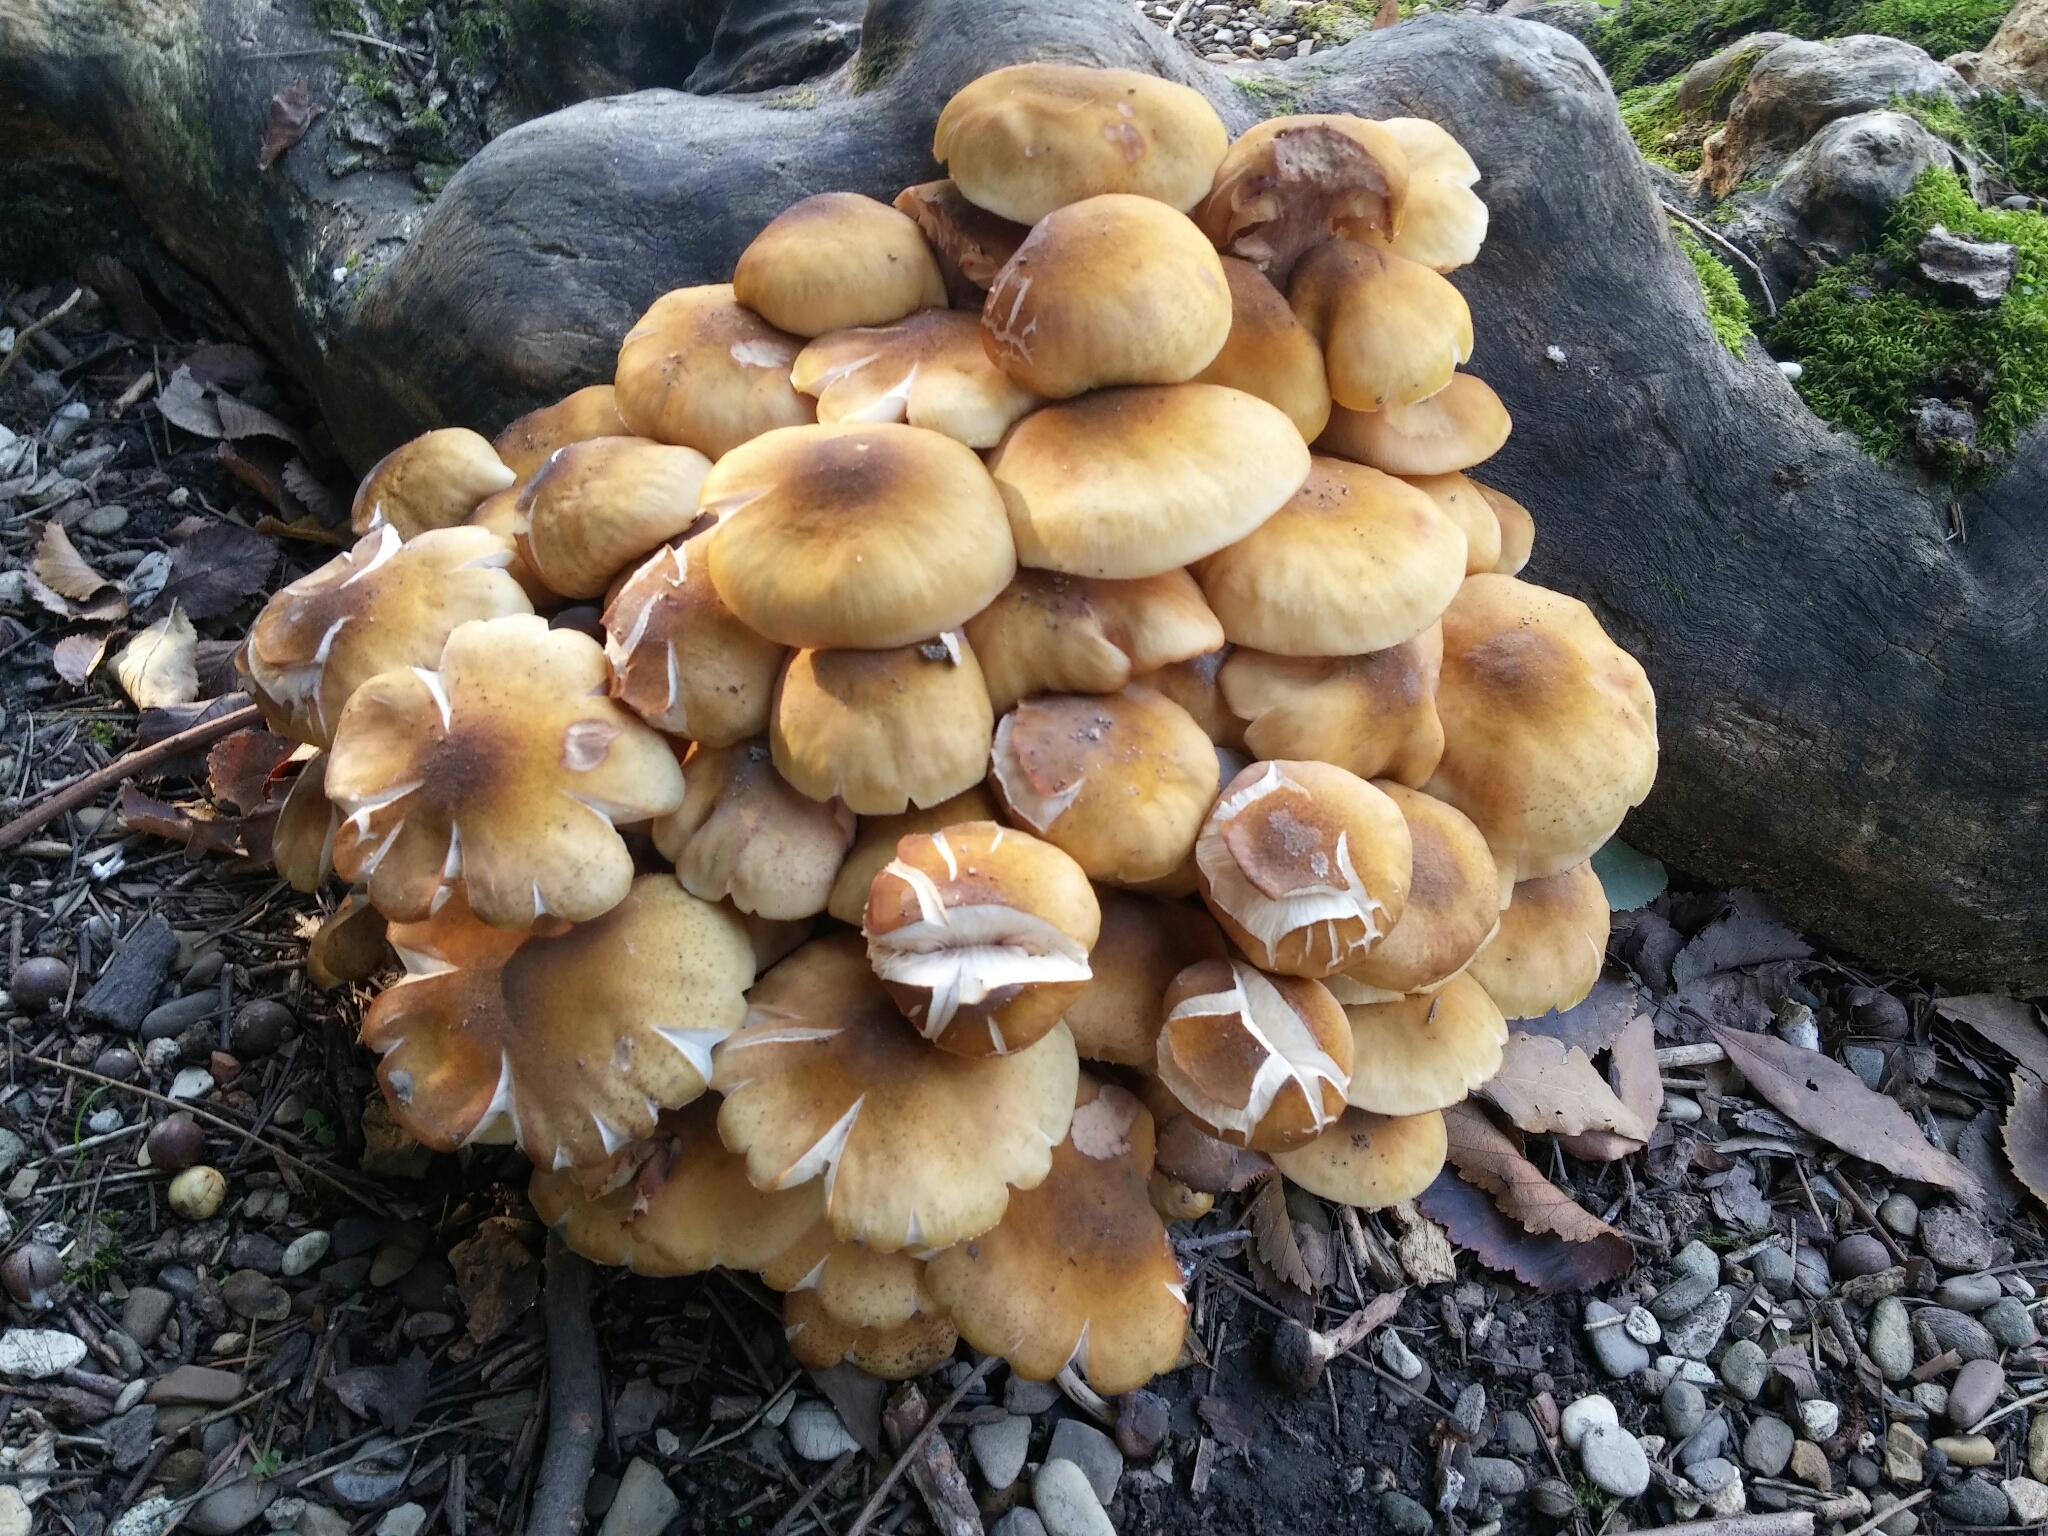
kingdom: Fungi
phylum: Basidiomycota
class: Agaricomycetes
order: Agaricales
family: Physalacriaceae
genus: Armillaria
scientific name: Armillaria mellea
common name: Honey fungus
